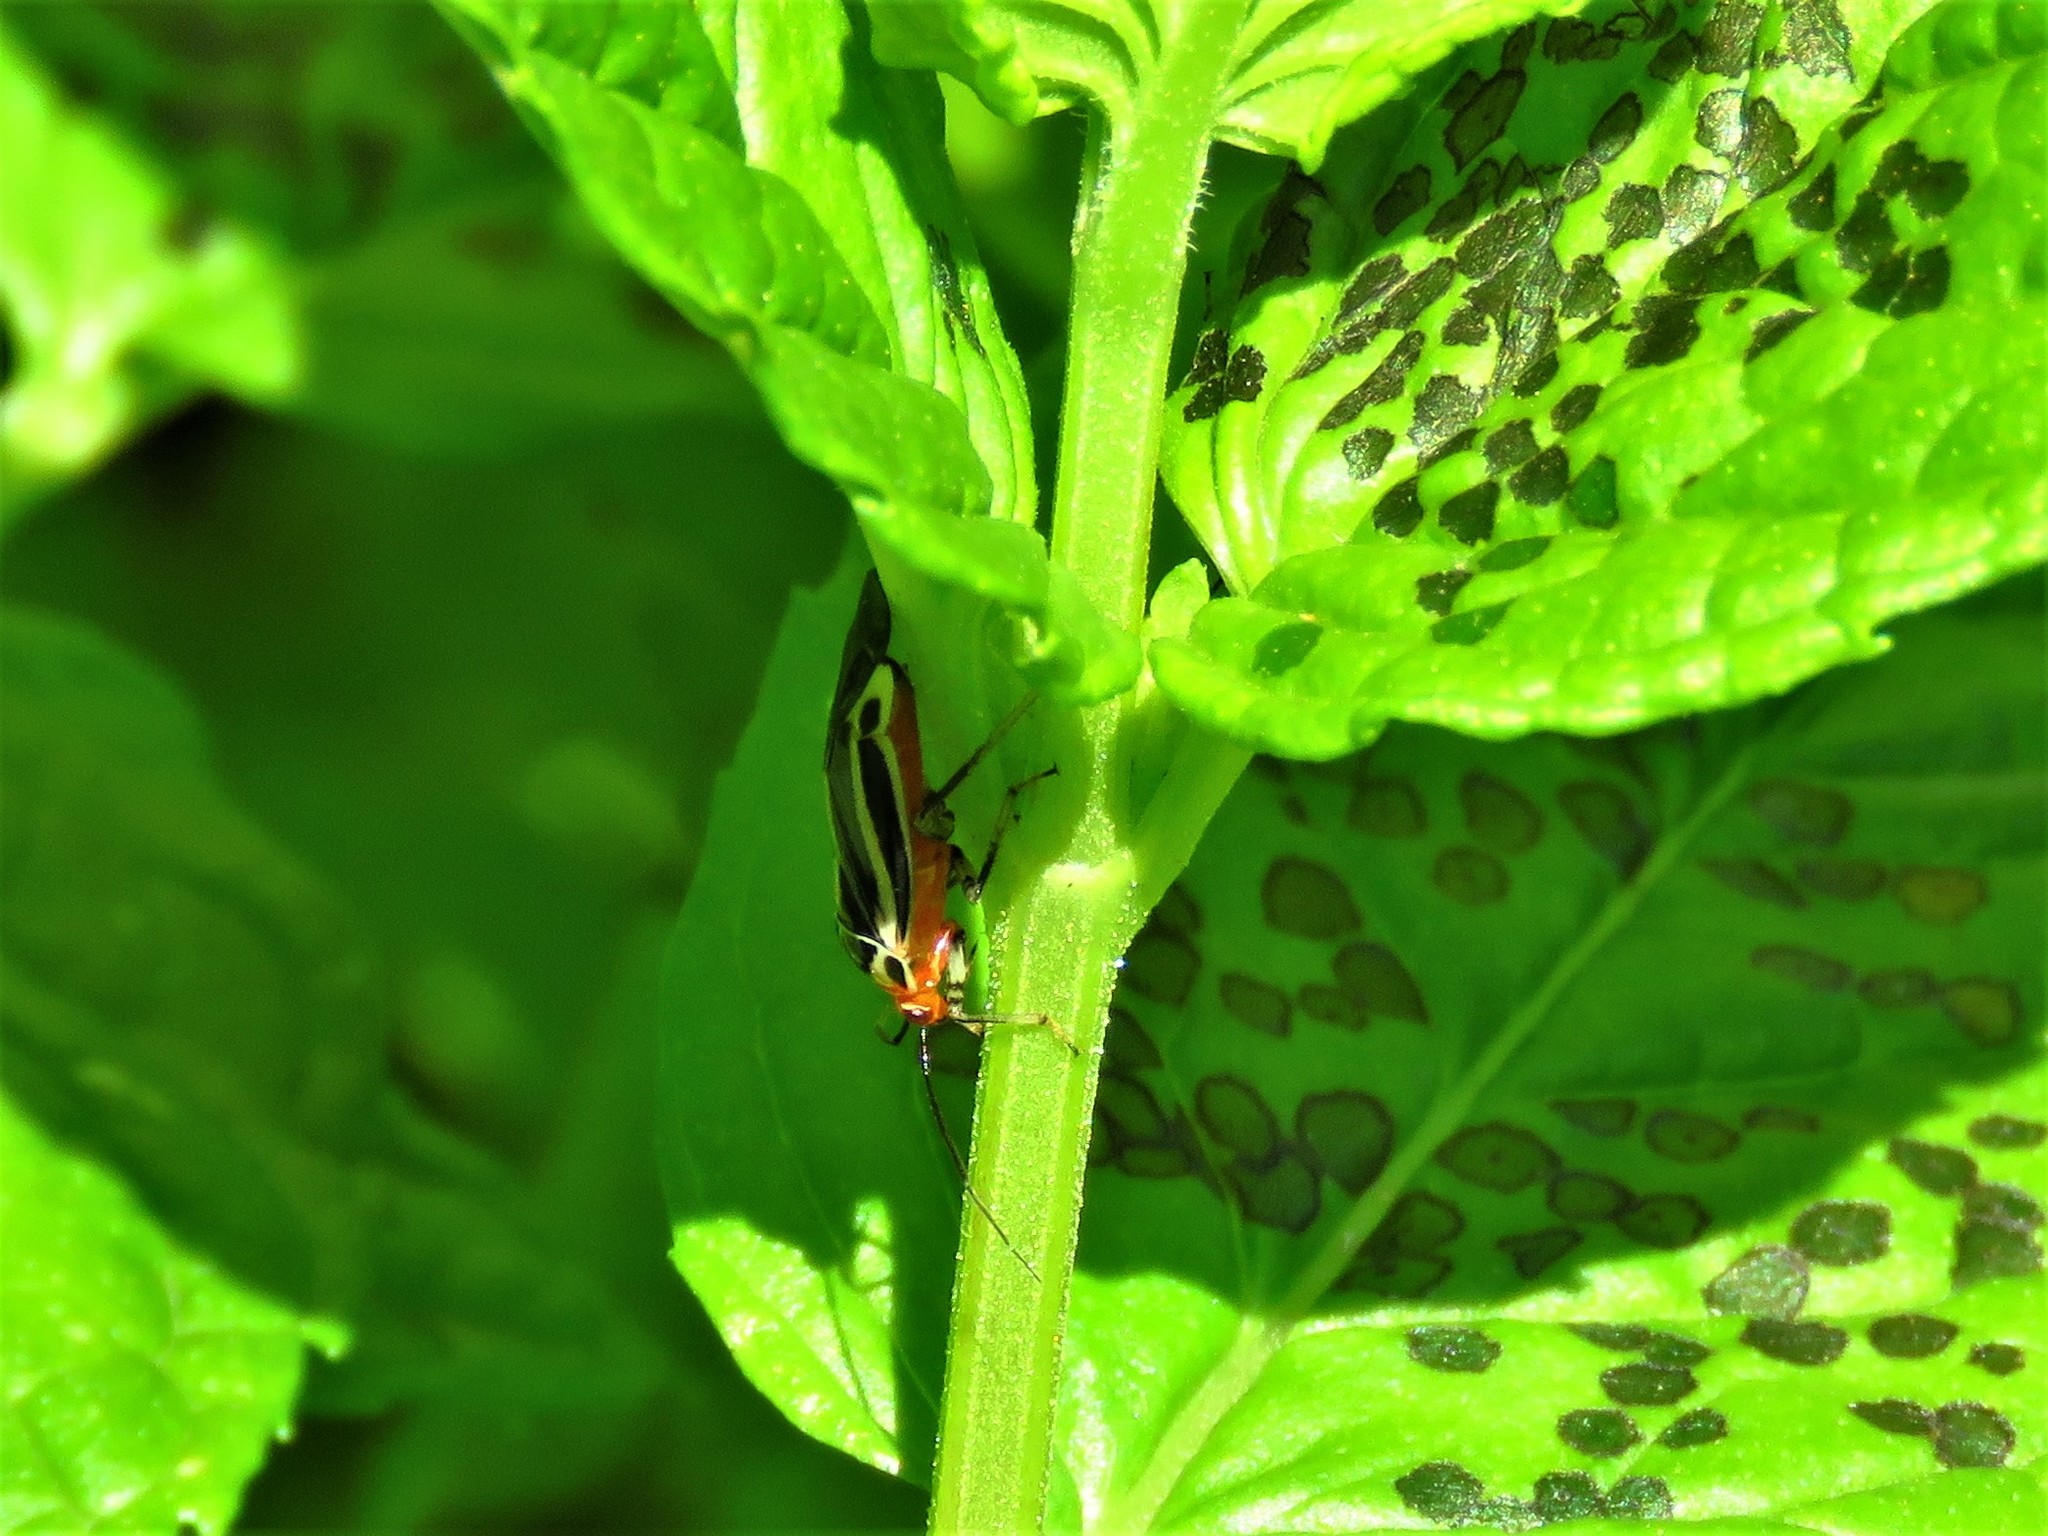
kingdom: Animalia
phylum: Arthropoda
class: Insecta
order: Hemiptera
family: Miridae
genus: Poecilocapsus
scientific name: Poecilocapsus lineatus
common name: Four-lined plant bug
